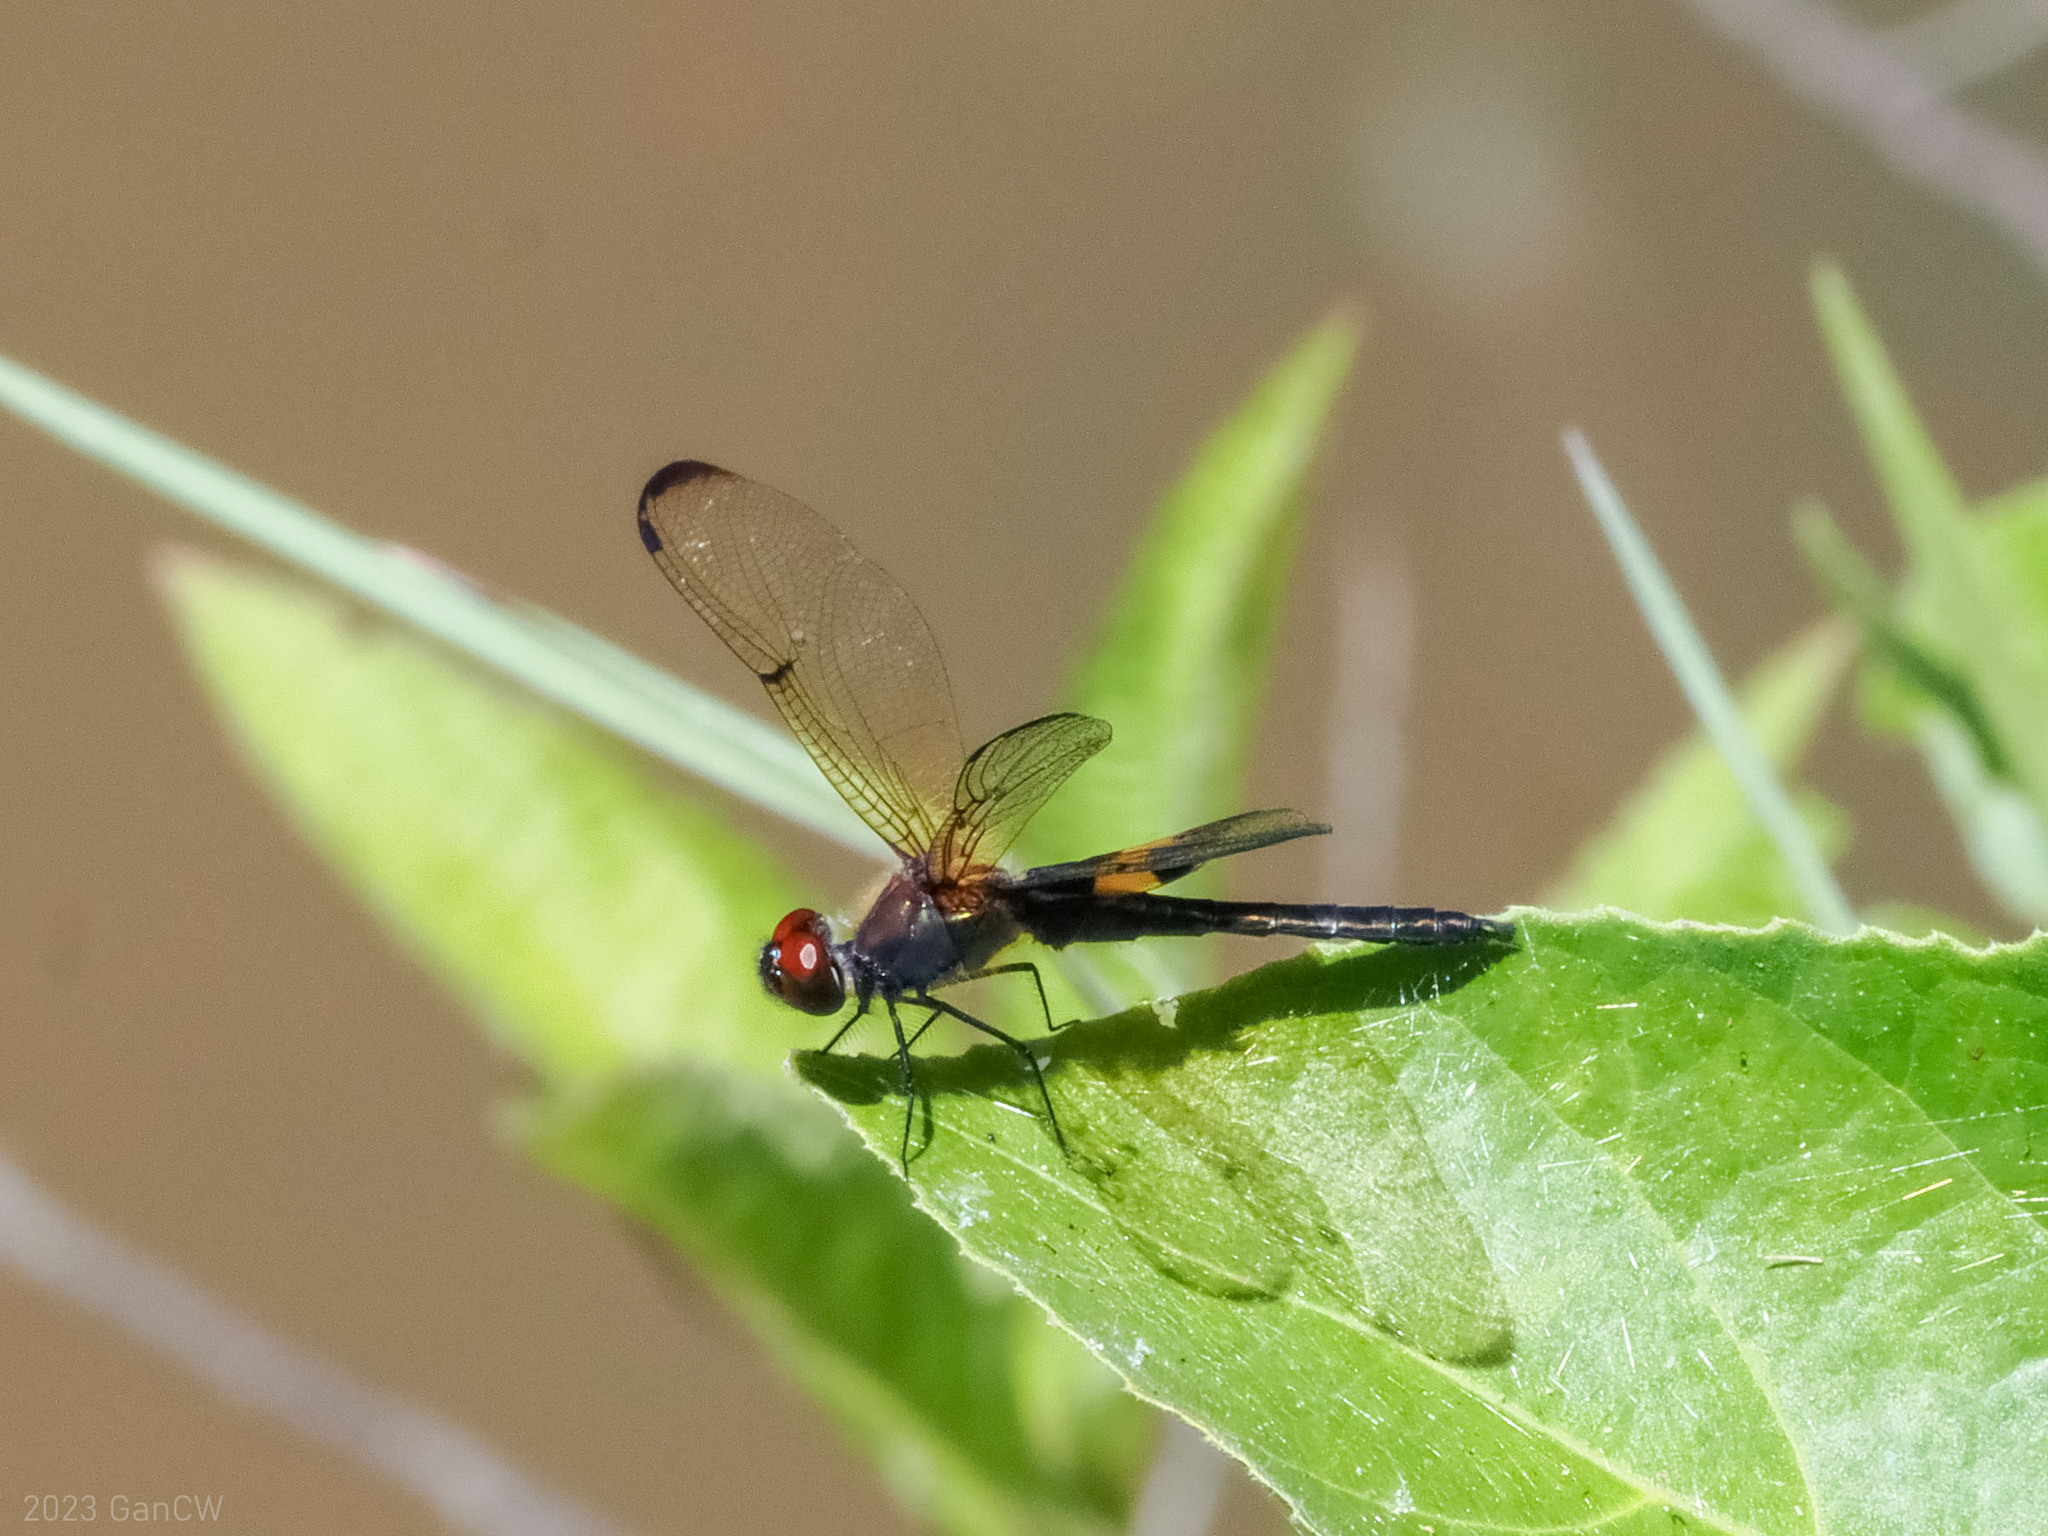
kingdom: Animalia
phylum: Arthropoda
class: Insecta
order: Odonata
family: Libellulidae
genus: Rhyothemis
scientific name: Rhyothemis phyllis
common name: Yellow-barred flutterer
